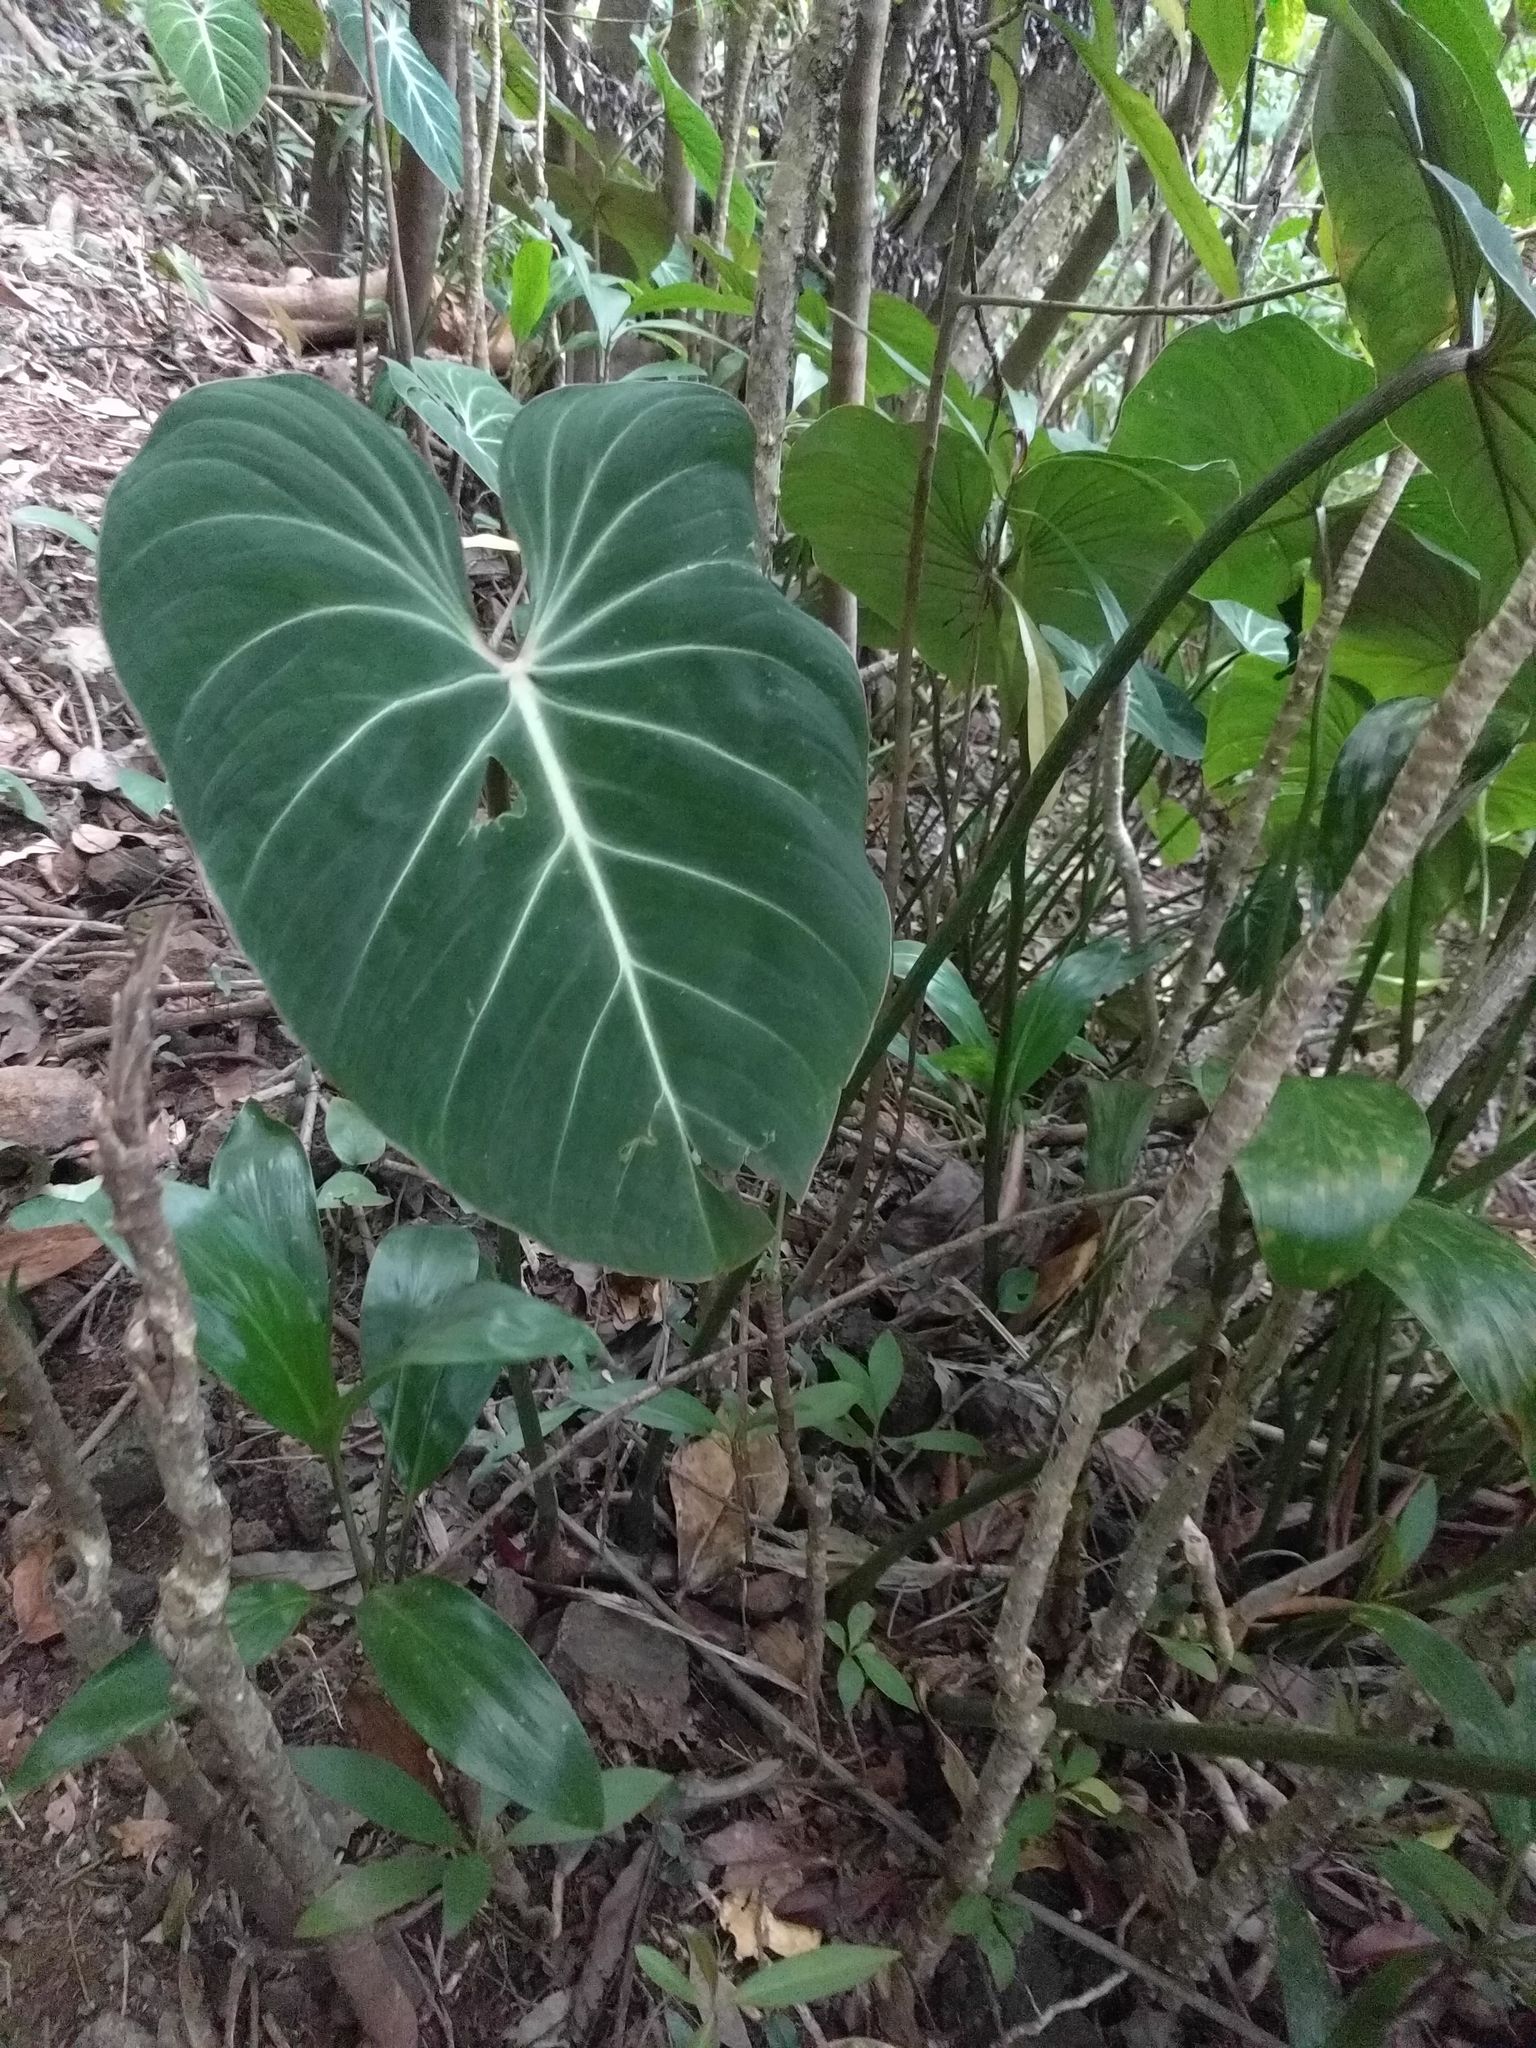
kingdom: Plantae
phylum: Tracheophyta
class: Liliopsida
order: Alismatales
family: Araceae
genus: Philodendron
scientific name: Philodendron gloriosum
